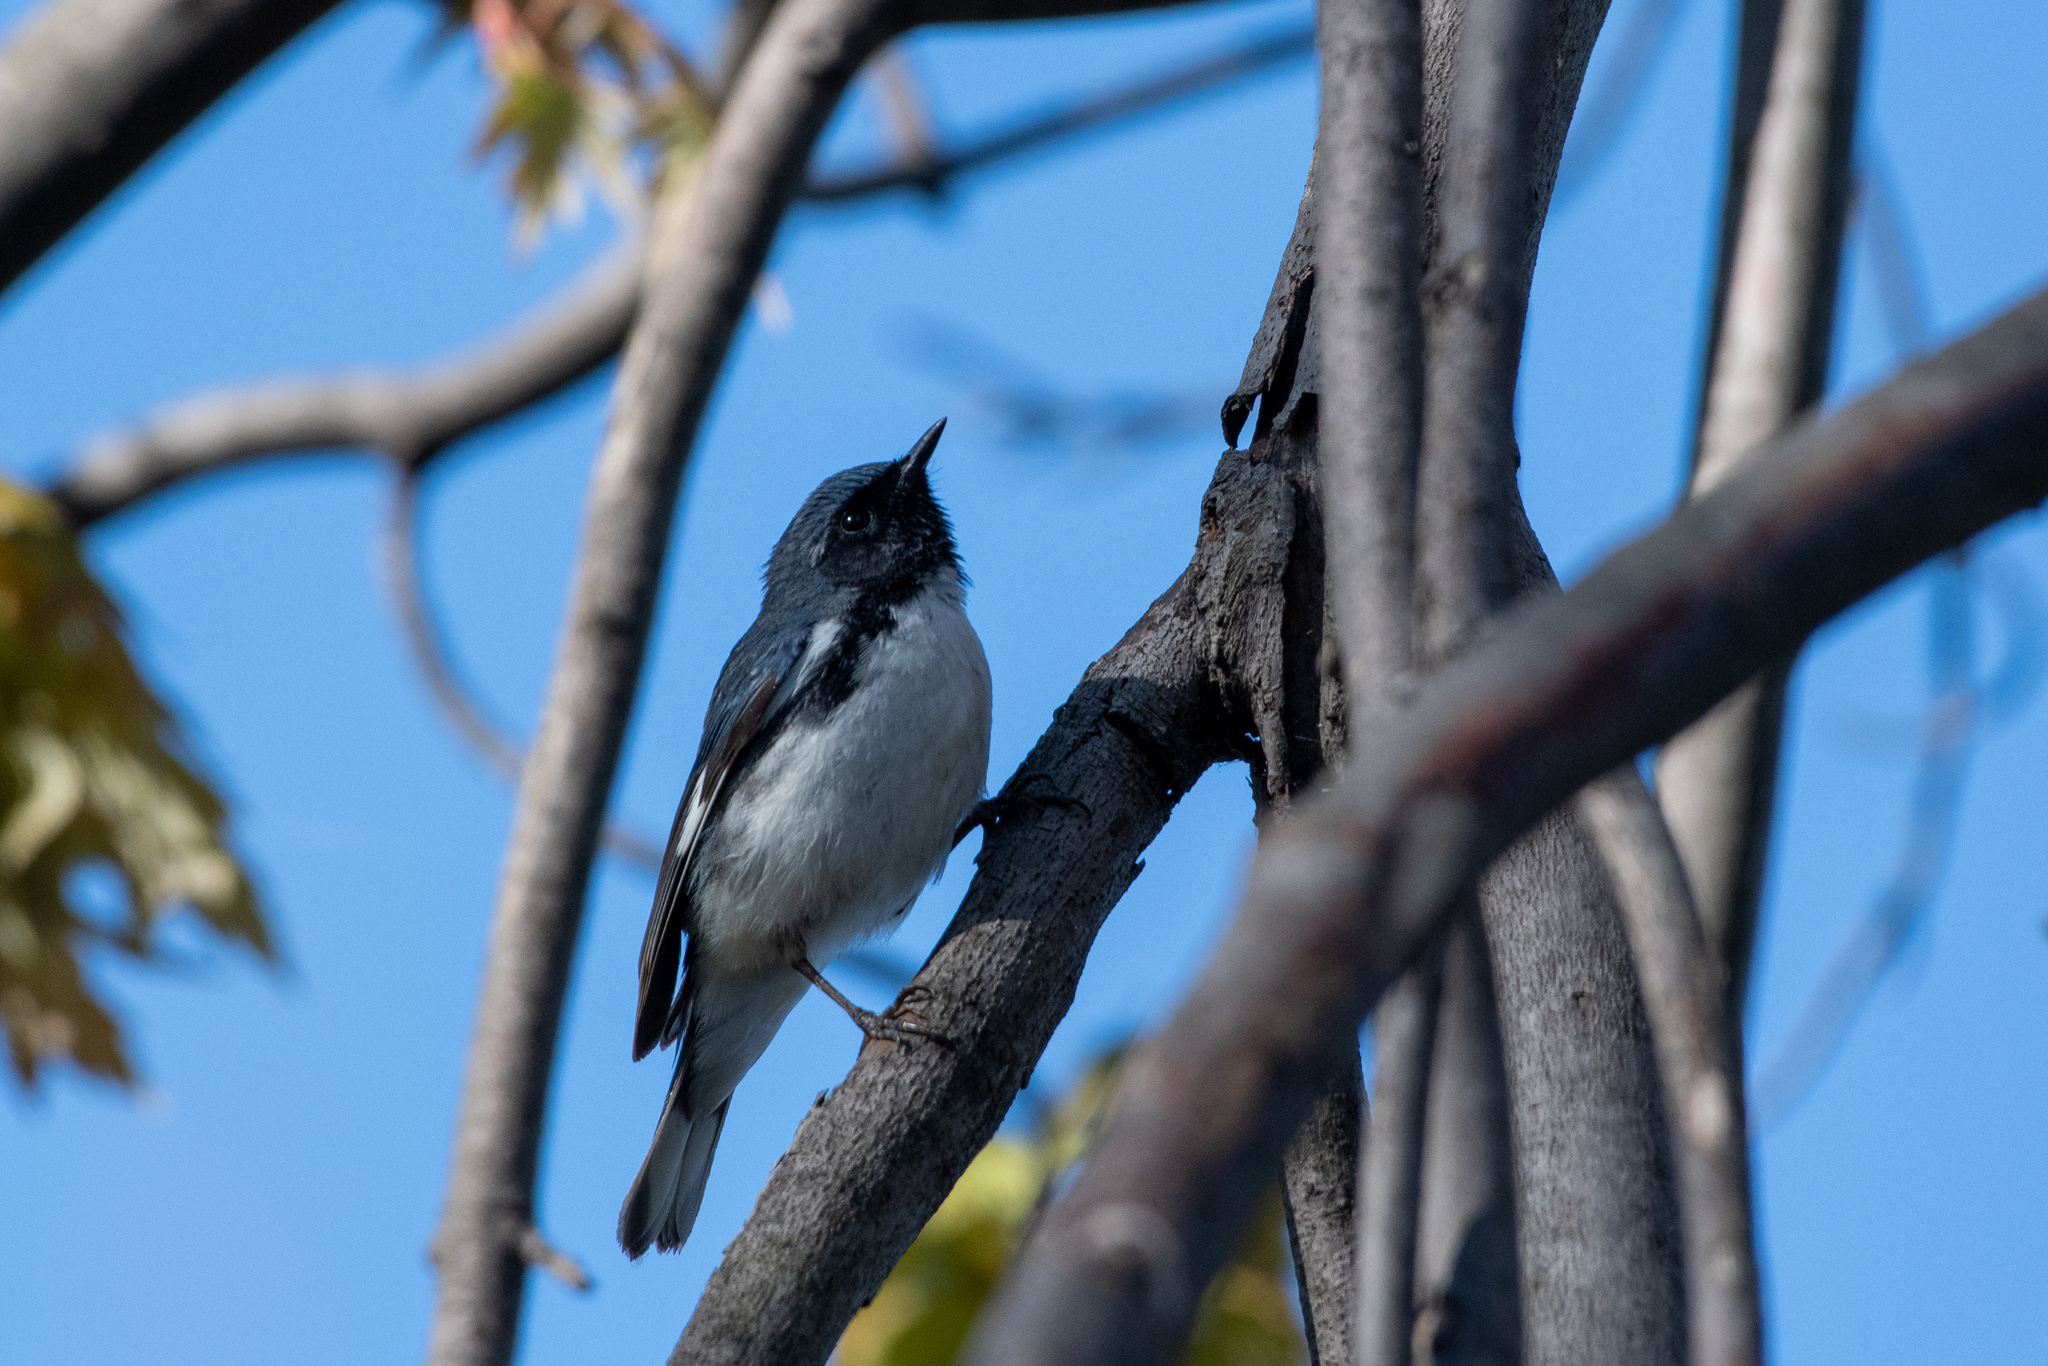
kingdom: Animalia
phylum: Chordata
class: Aves
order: Passeriformes
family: Parulidae
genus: Setophaga
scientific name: Setophaga caerulescens
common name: Black-throated blue warbler
